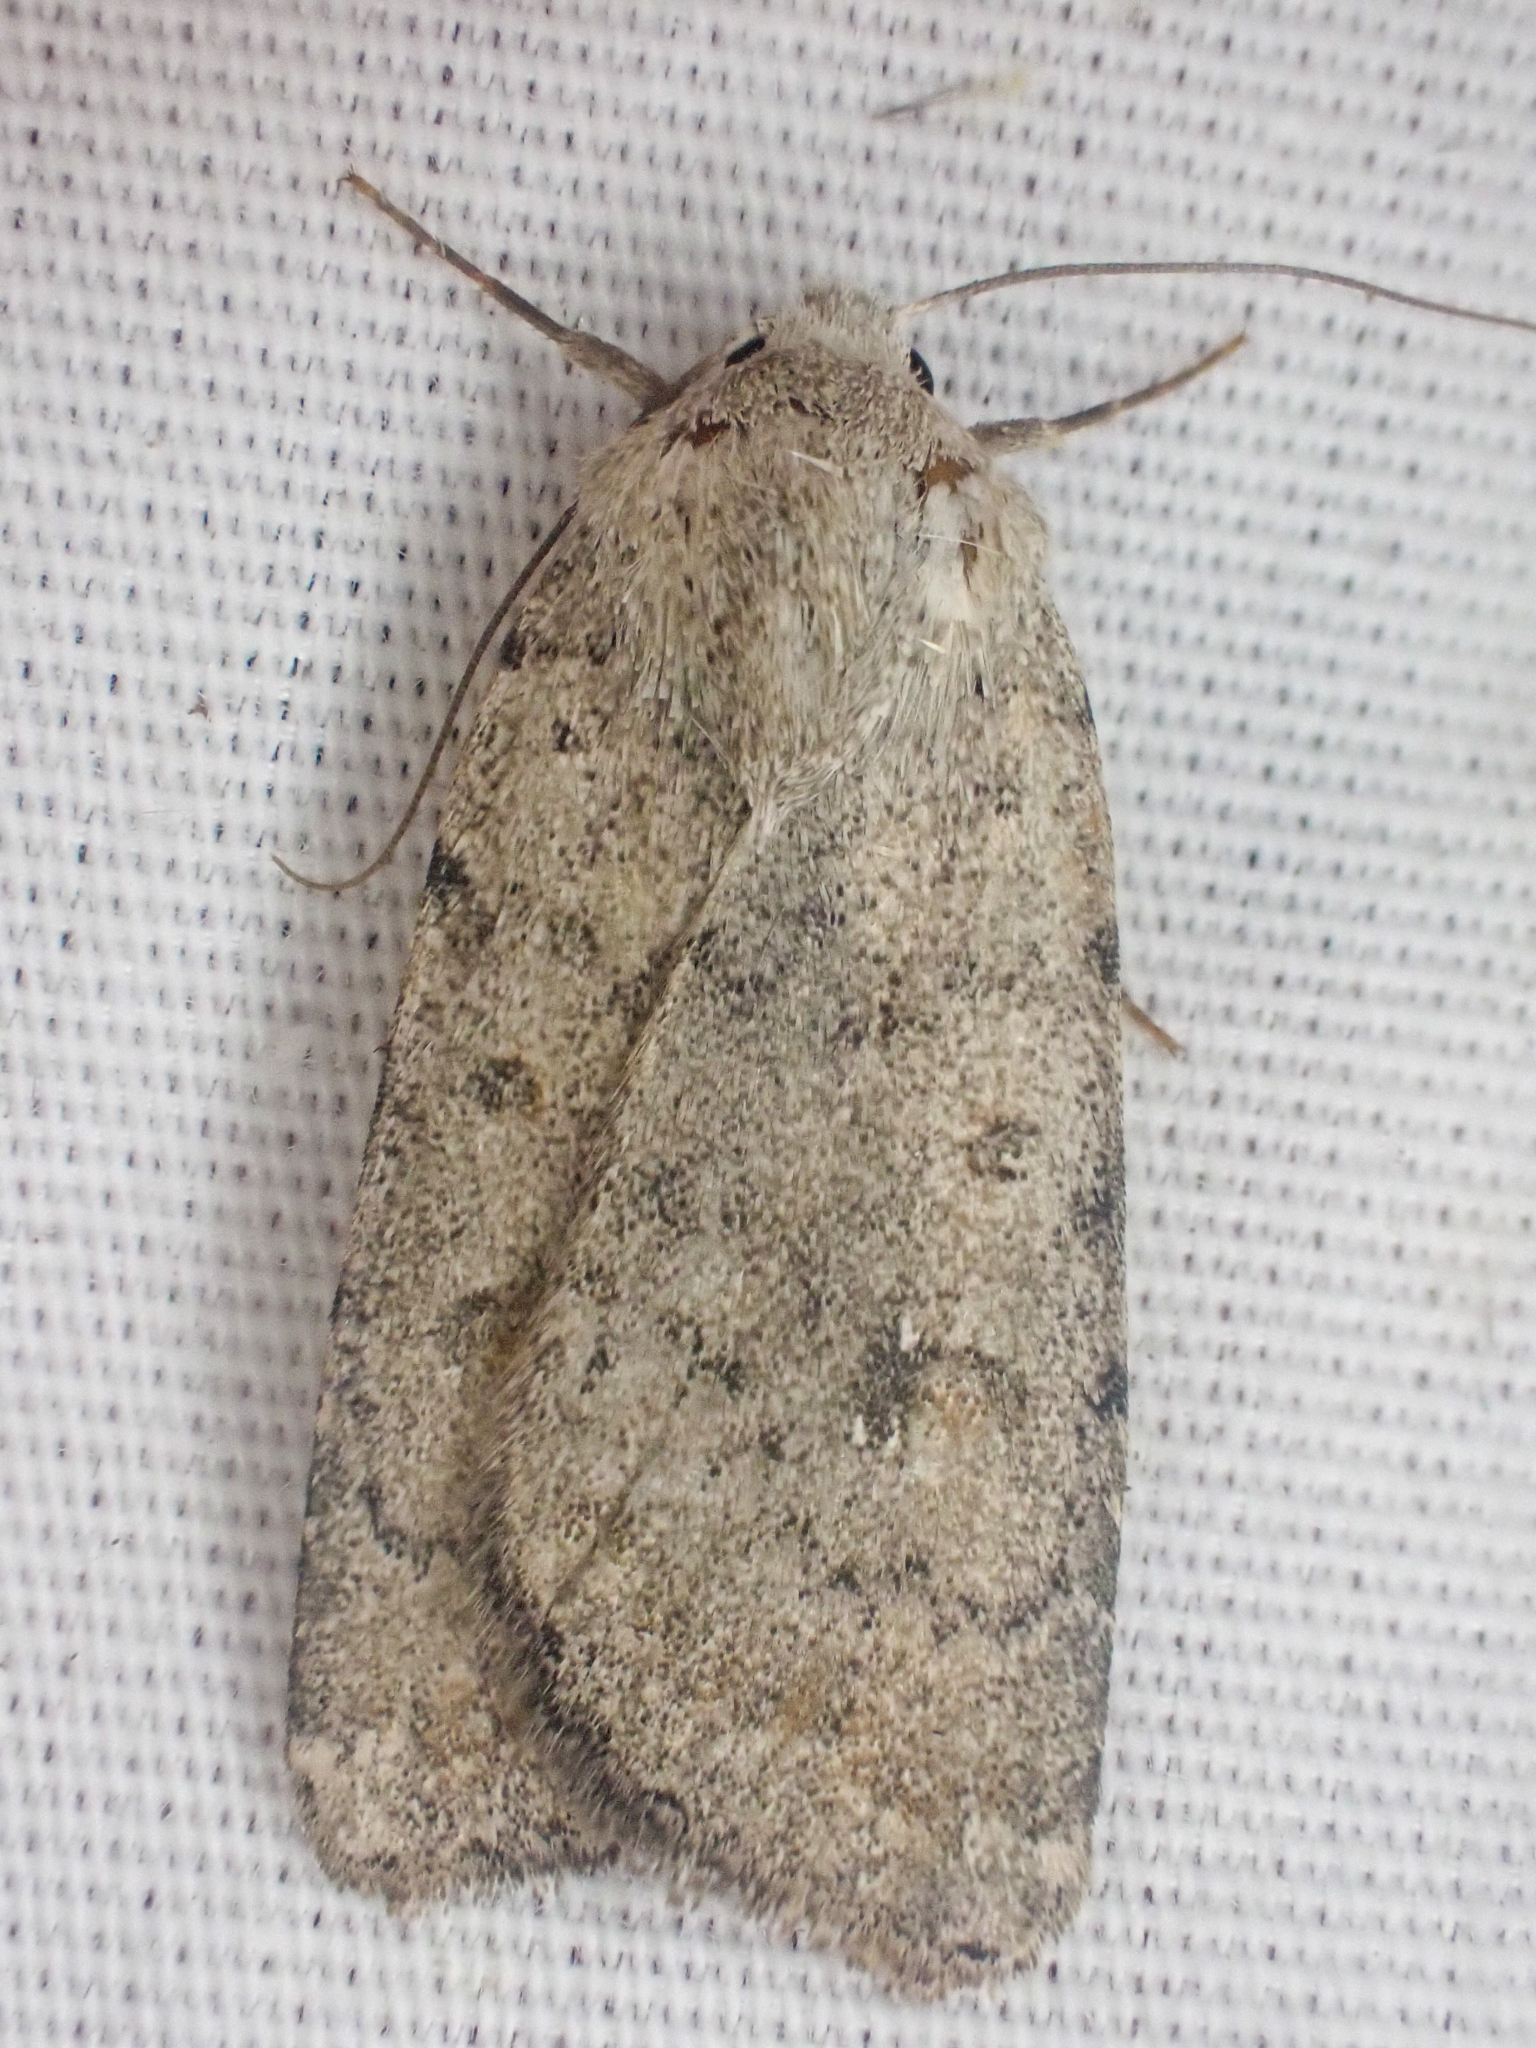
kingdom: Animalia
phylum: Arthropoda
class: Insecta
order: Lepidoptera
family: Noctuidae
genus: Caradrina
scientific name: Caradrina montana
